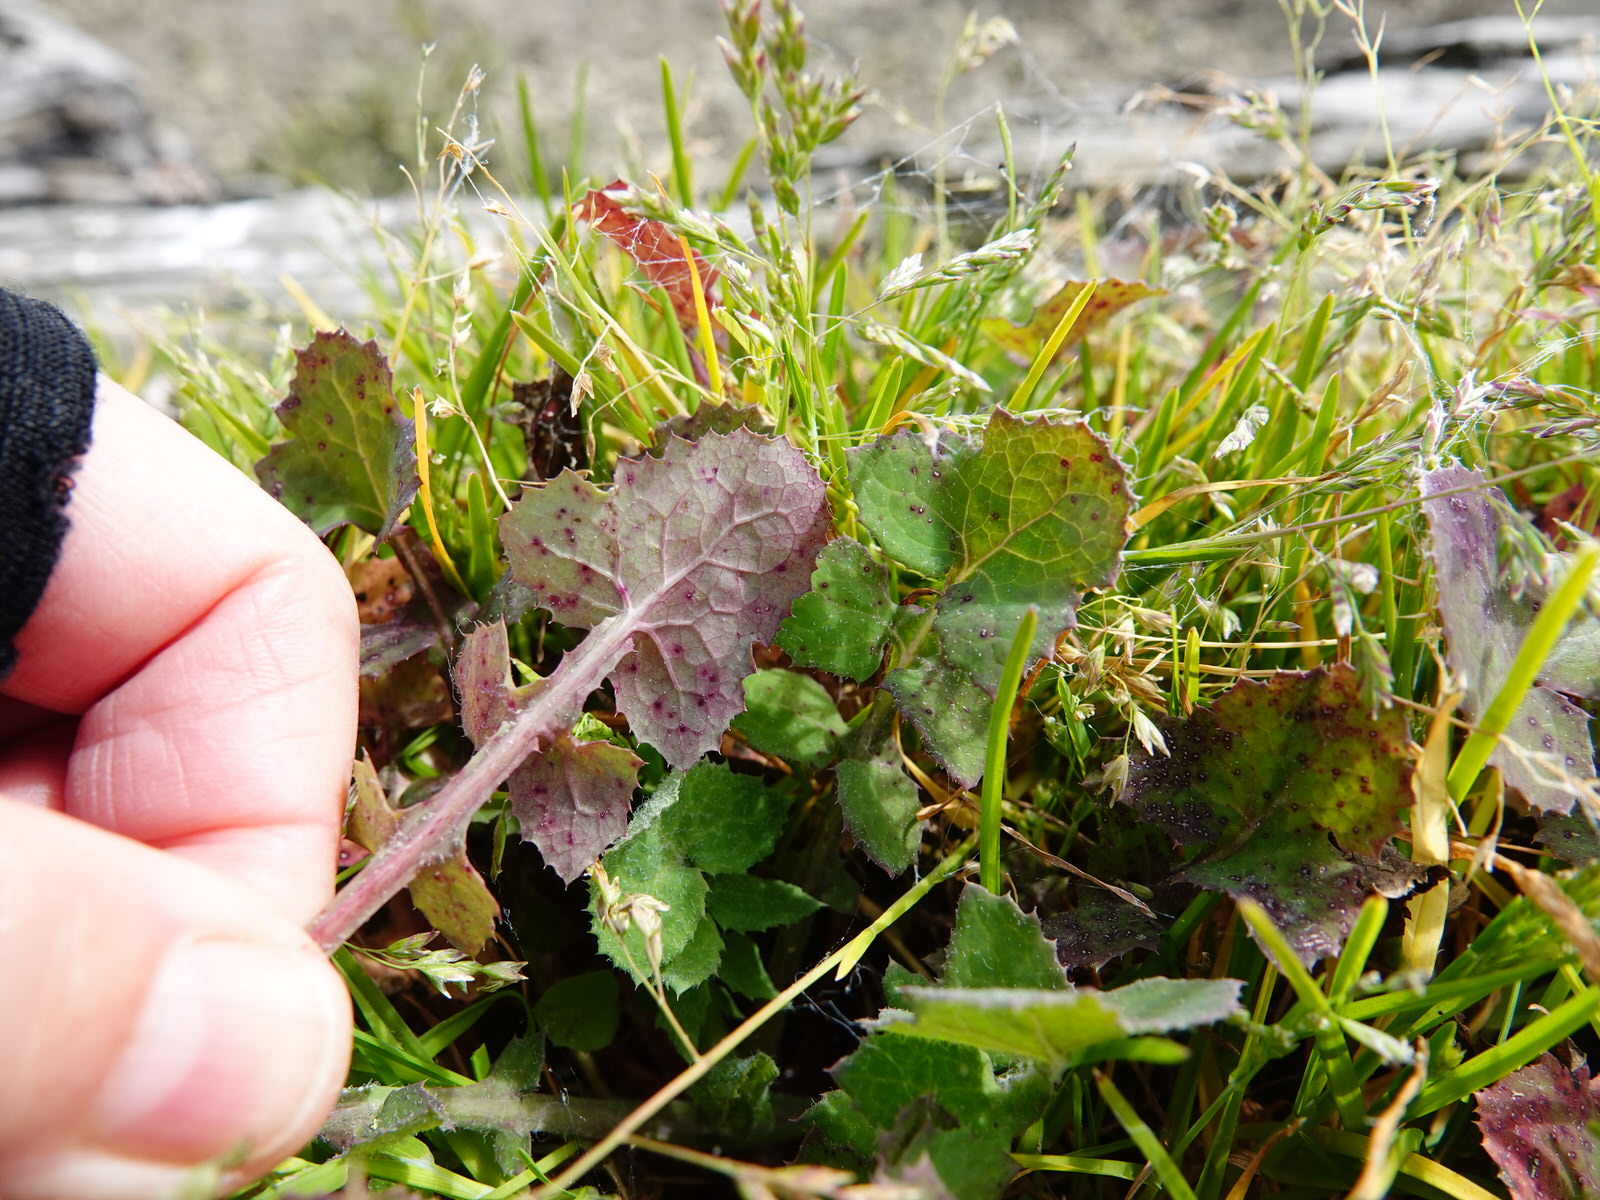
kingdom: Plantae
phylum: Tracheophyta
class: Magnoliopsida
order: Asterales
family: Asteraceae
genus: Sonchus
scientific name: Sonchus oleraceus
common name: Common sowthistle
